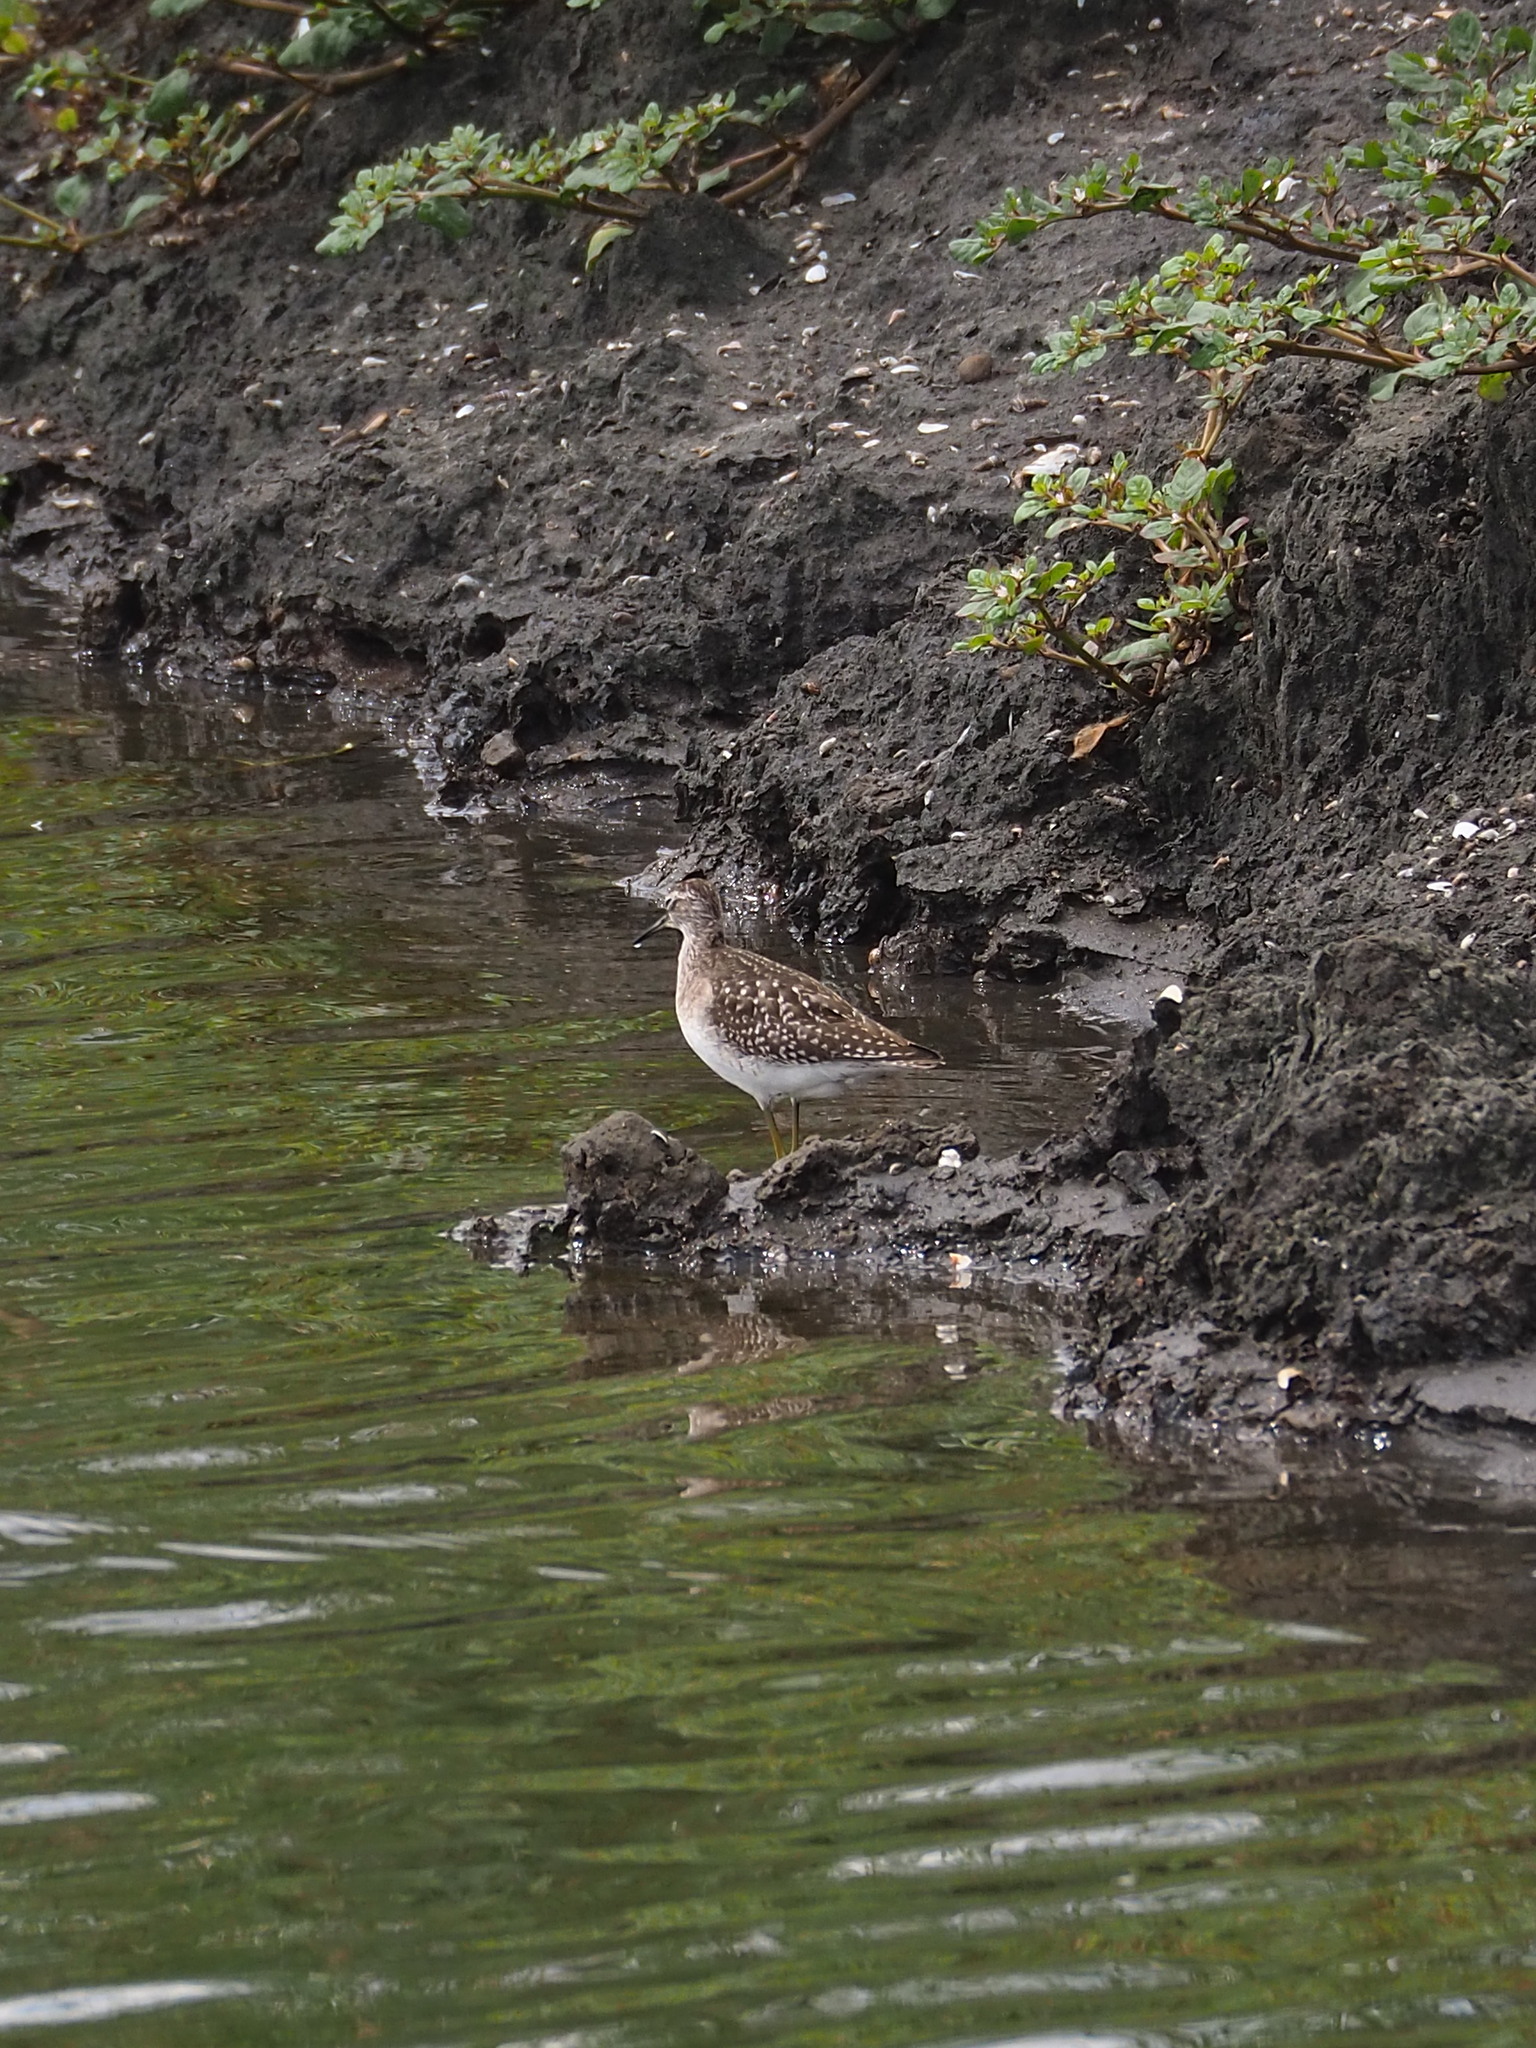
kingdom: Animalia
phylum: Chordata
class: Aves
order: Charadriiformes
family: Scolopacidae
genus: Tringa
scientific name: Tringa glareola
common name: Wood sandpiper
